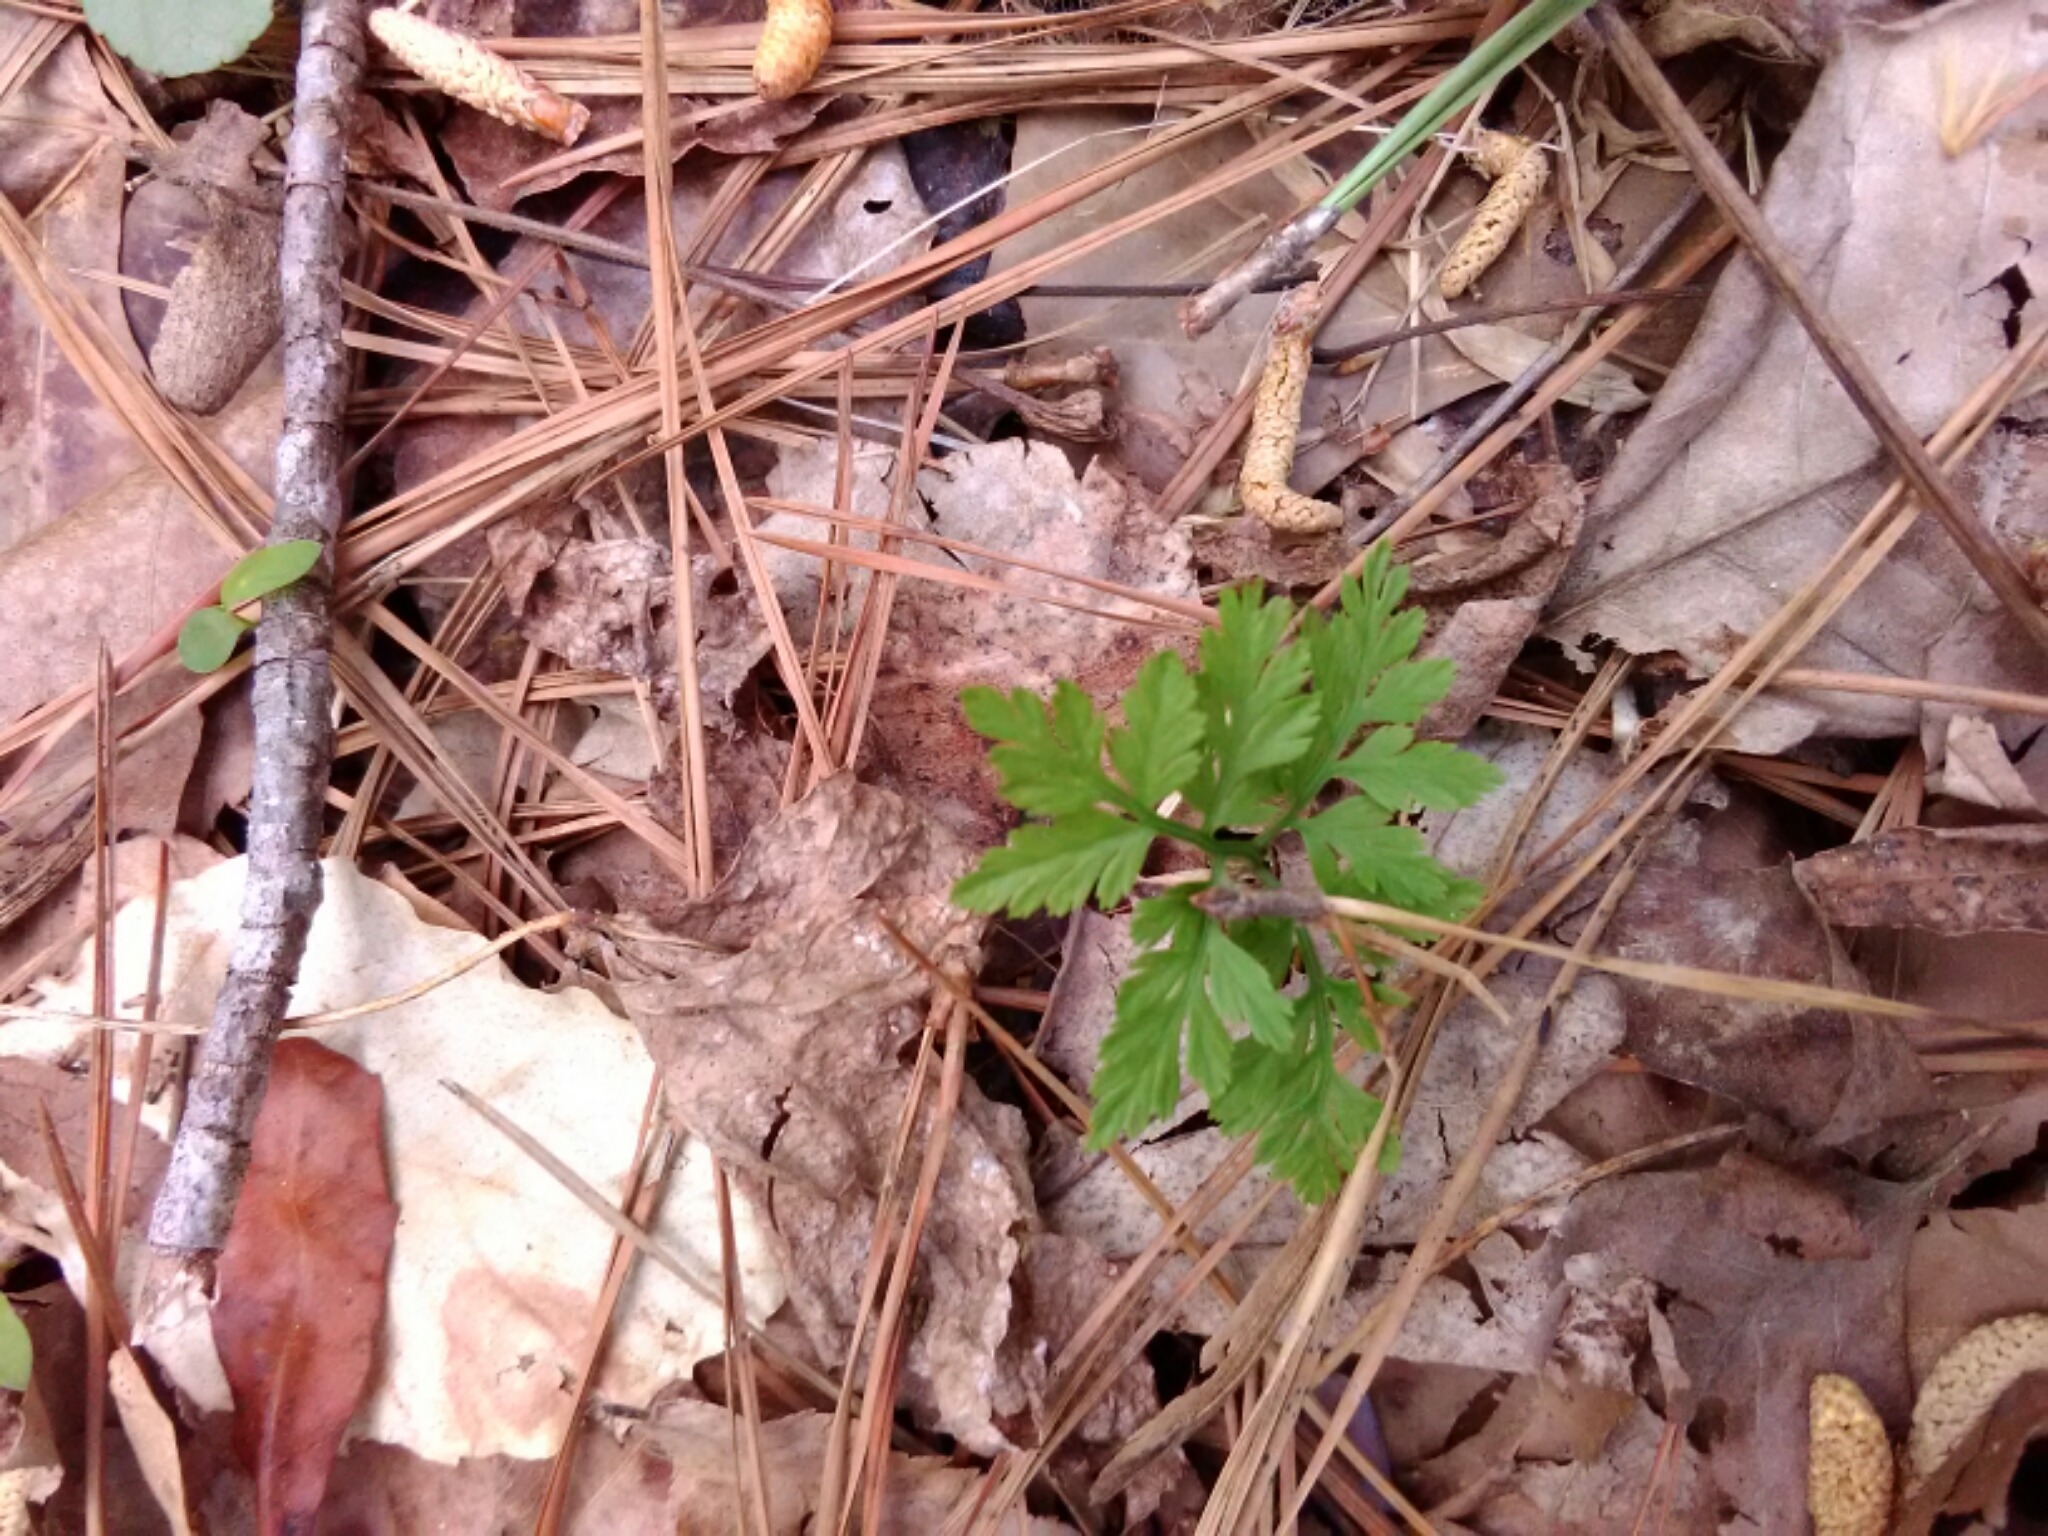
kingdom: Plantae
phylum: Tracheophyta
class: Polypodiopsida
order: Ophioglossales
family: Ophioglossaceae
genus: Botrypus
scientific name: Botrypus virginianus
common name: Common grapefern
